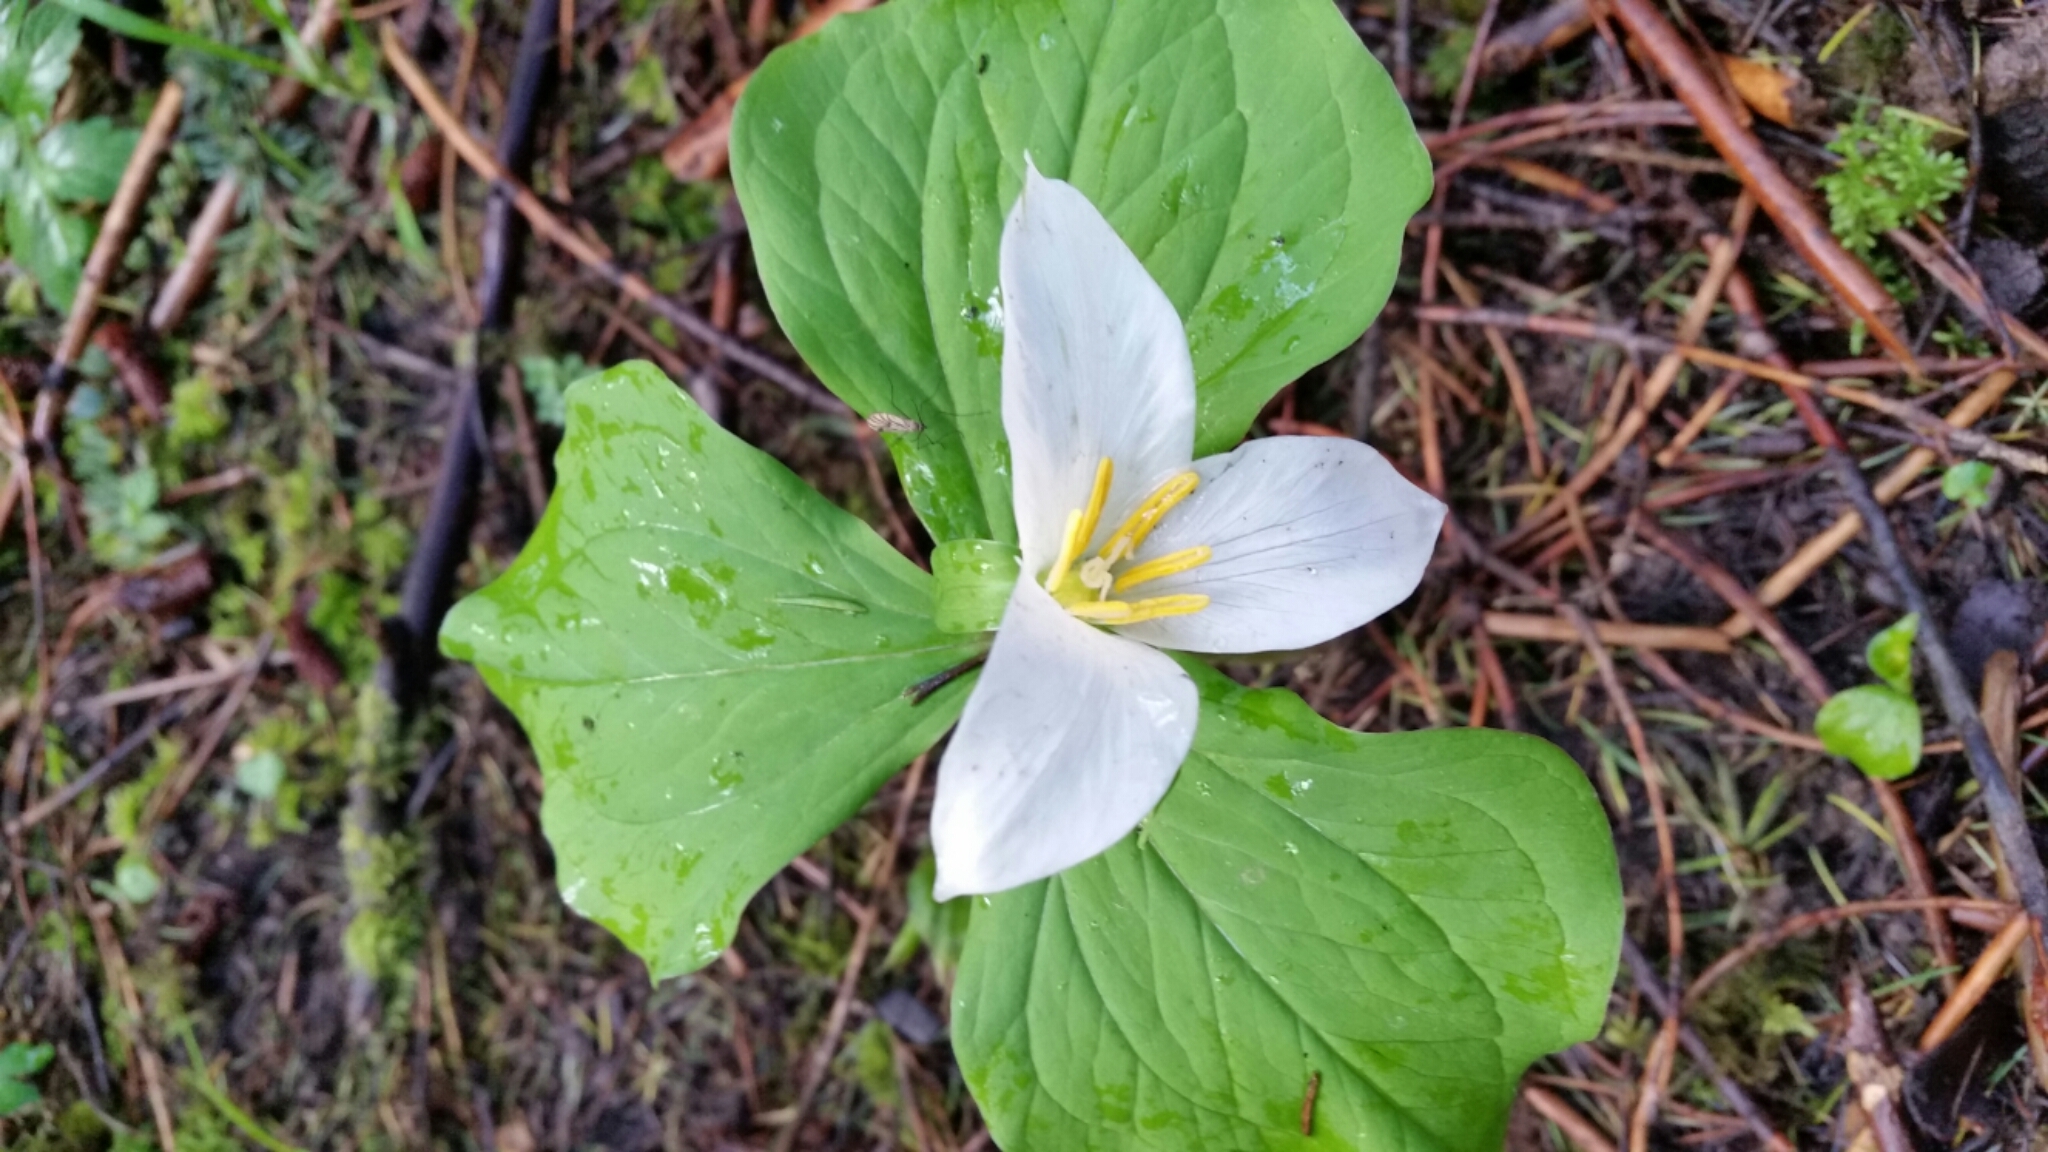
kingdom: Plantae
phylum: Tracheophyta
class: Liliopsida
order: Liliales
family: Melanthiaceae
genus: Trillium
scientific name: Trillium ovatum
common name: Pacific trillium
